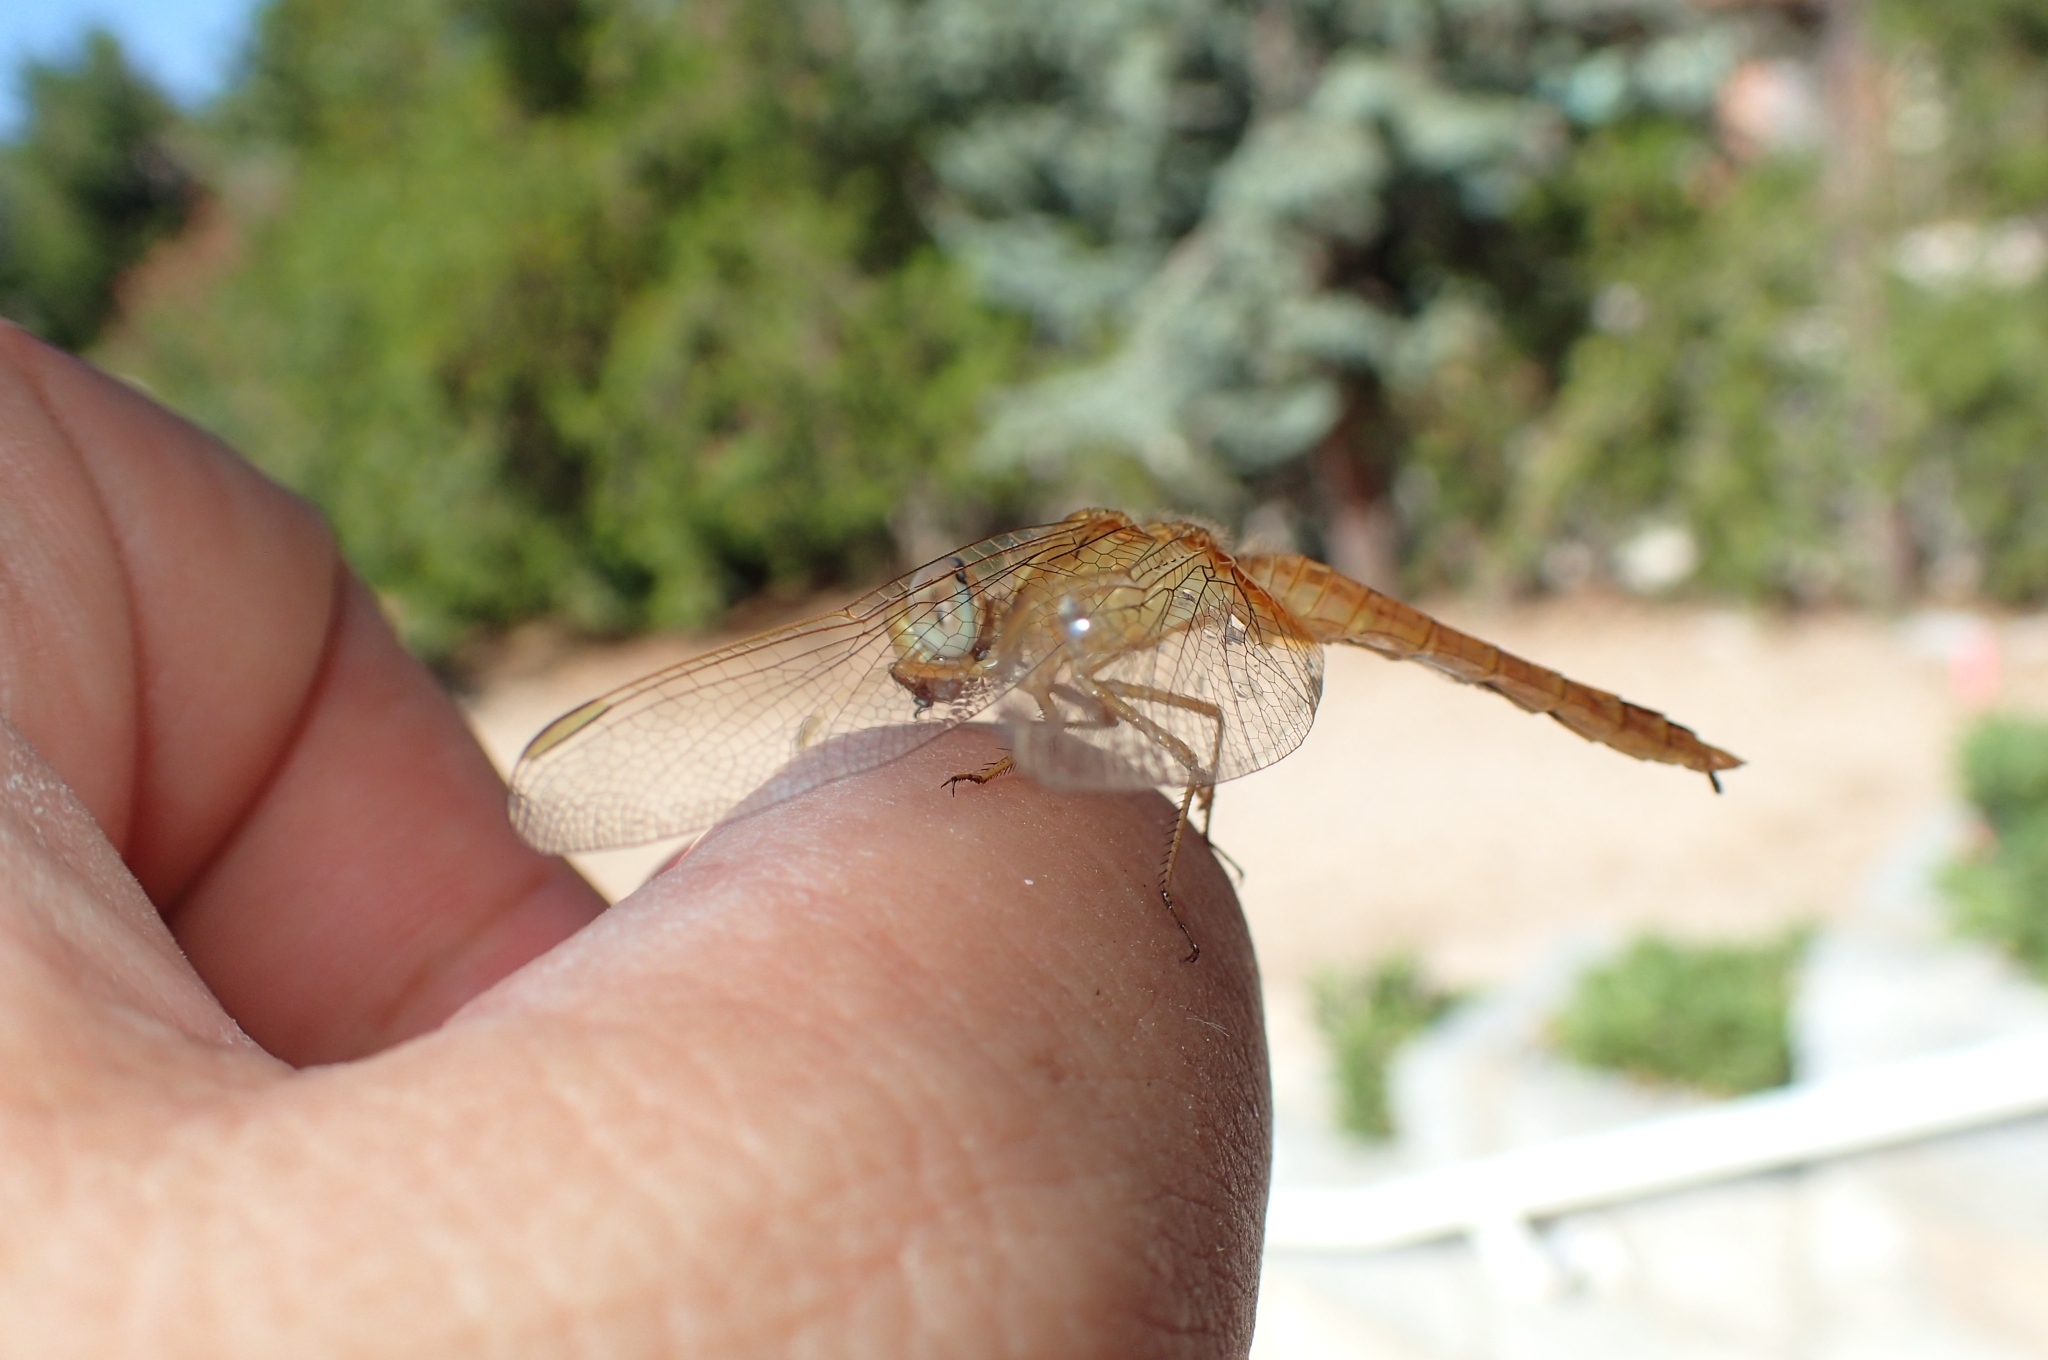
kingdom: Animalia
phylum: Arthropoda
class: Insecta
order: Odonata
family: Libellulidae
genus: Crocothemis
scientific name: Crocothemis erythraea
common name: Scarlet dragonfly
